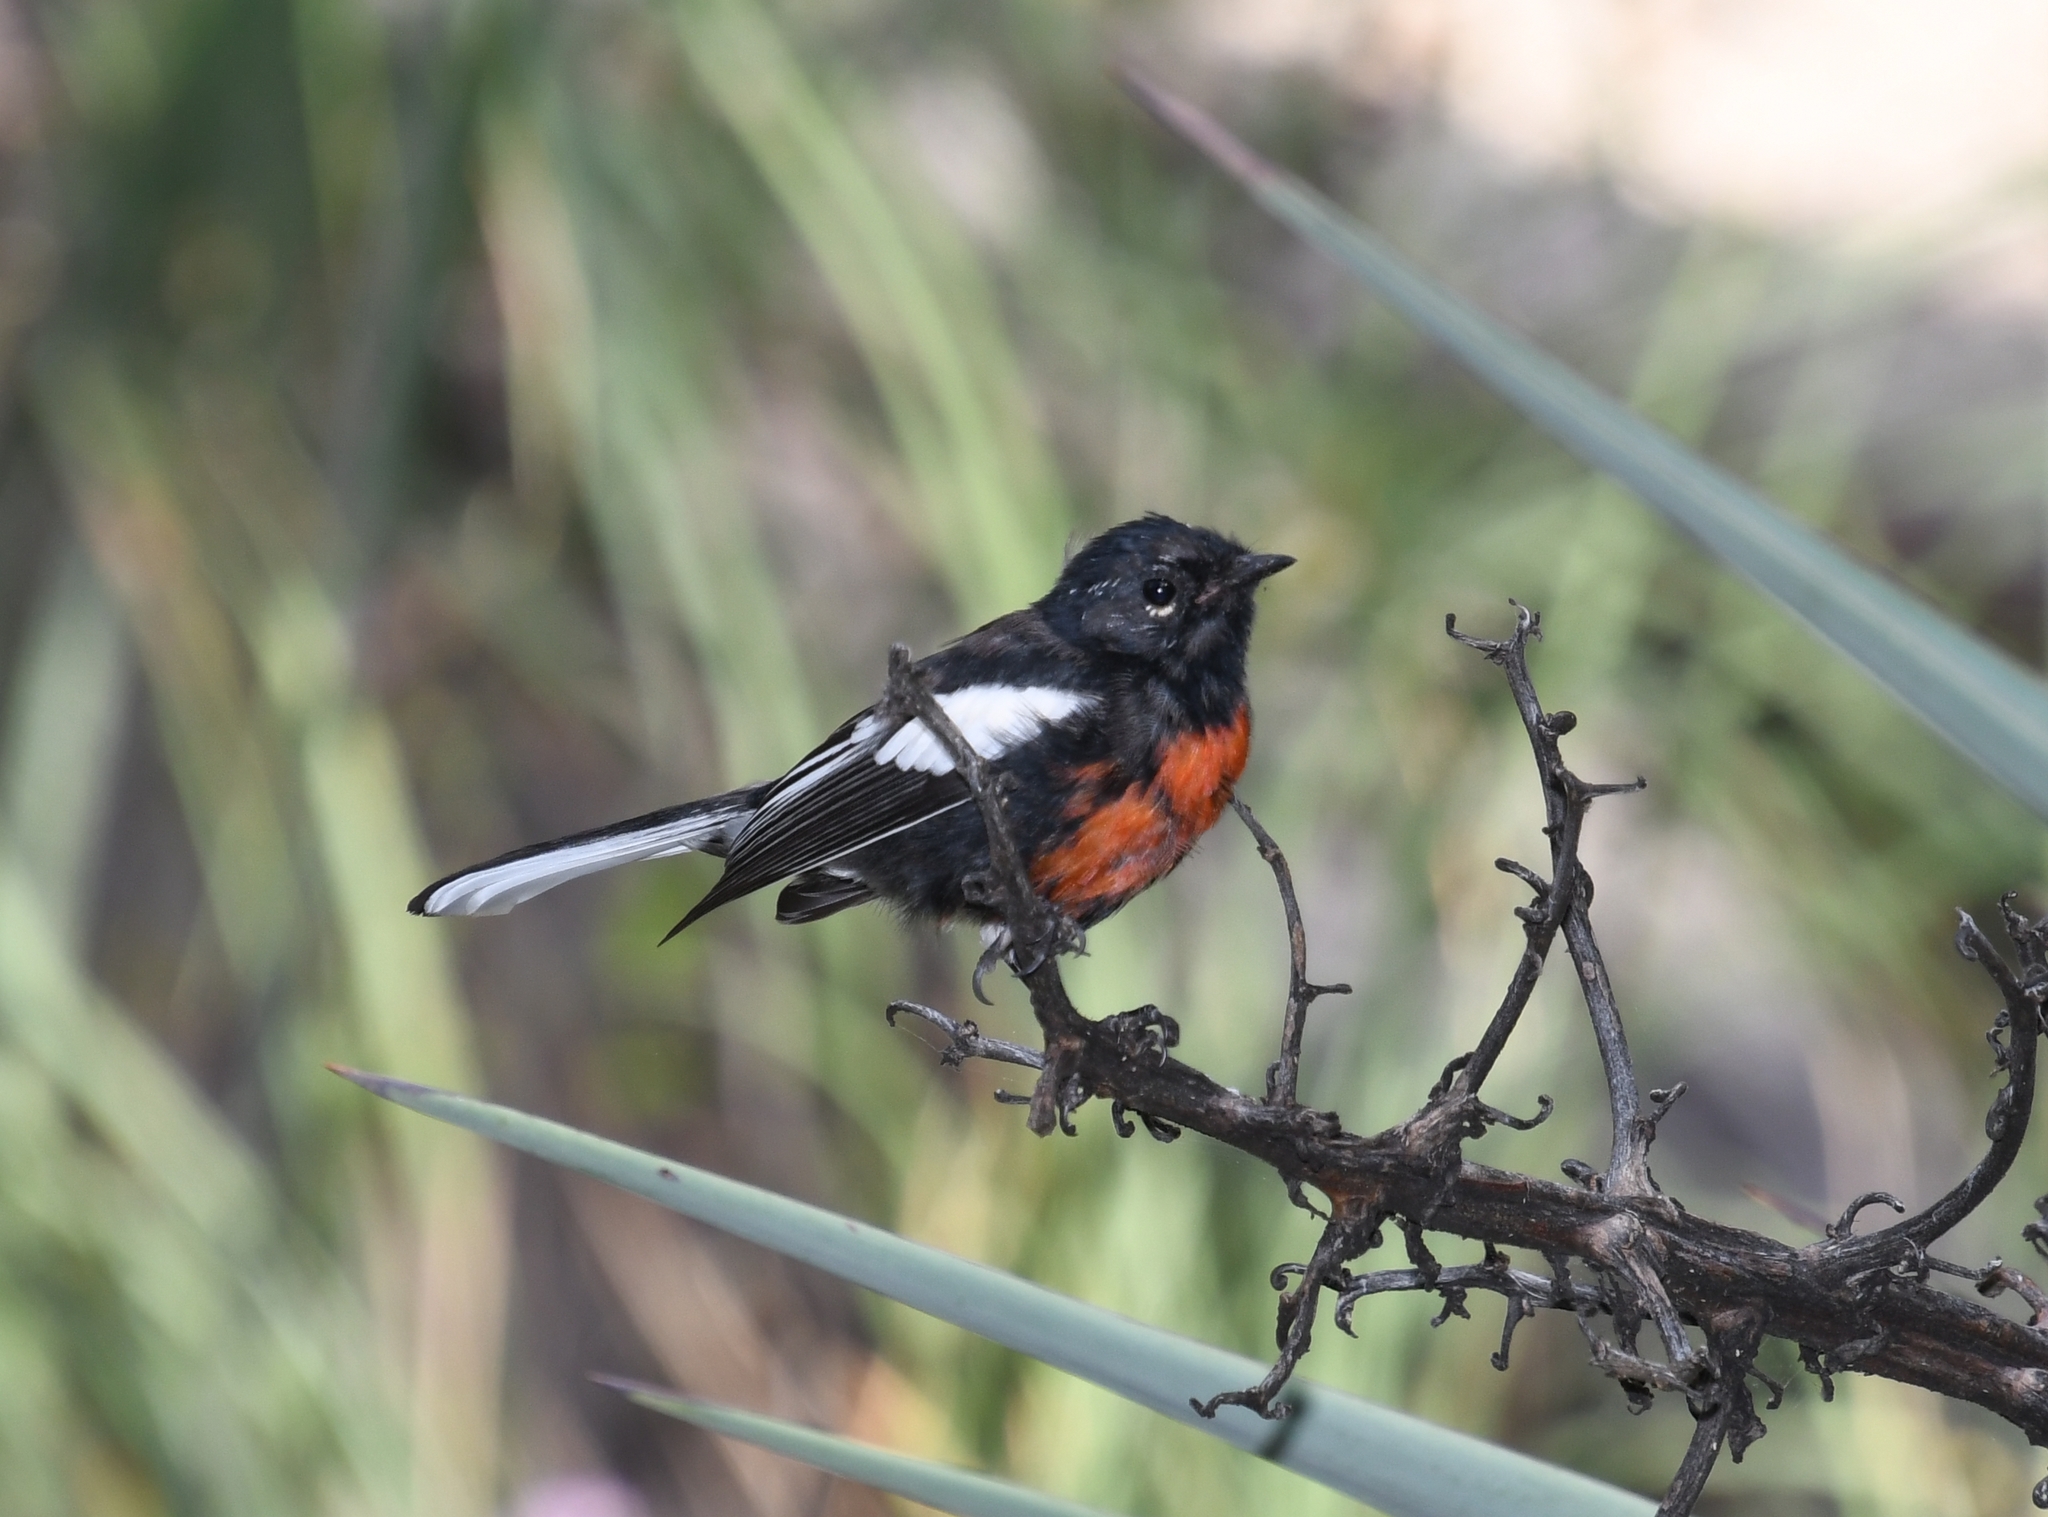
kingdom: Animalia
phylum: Chordata
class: Aves
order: Passeriformes
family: Parulidae
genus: Myioborus
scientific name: Myioborus pictus
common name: Painted whitestart
